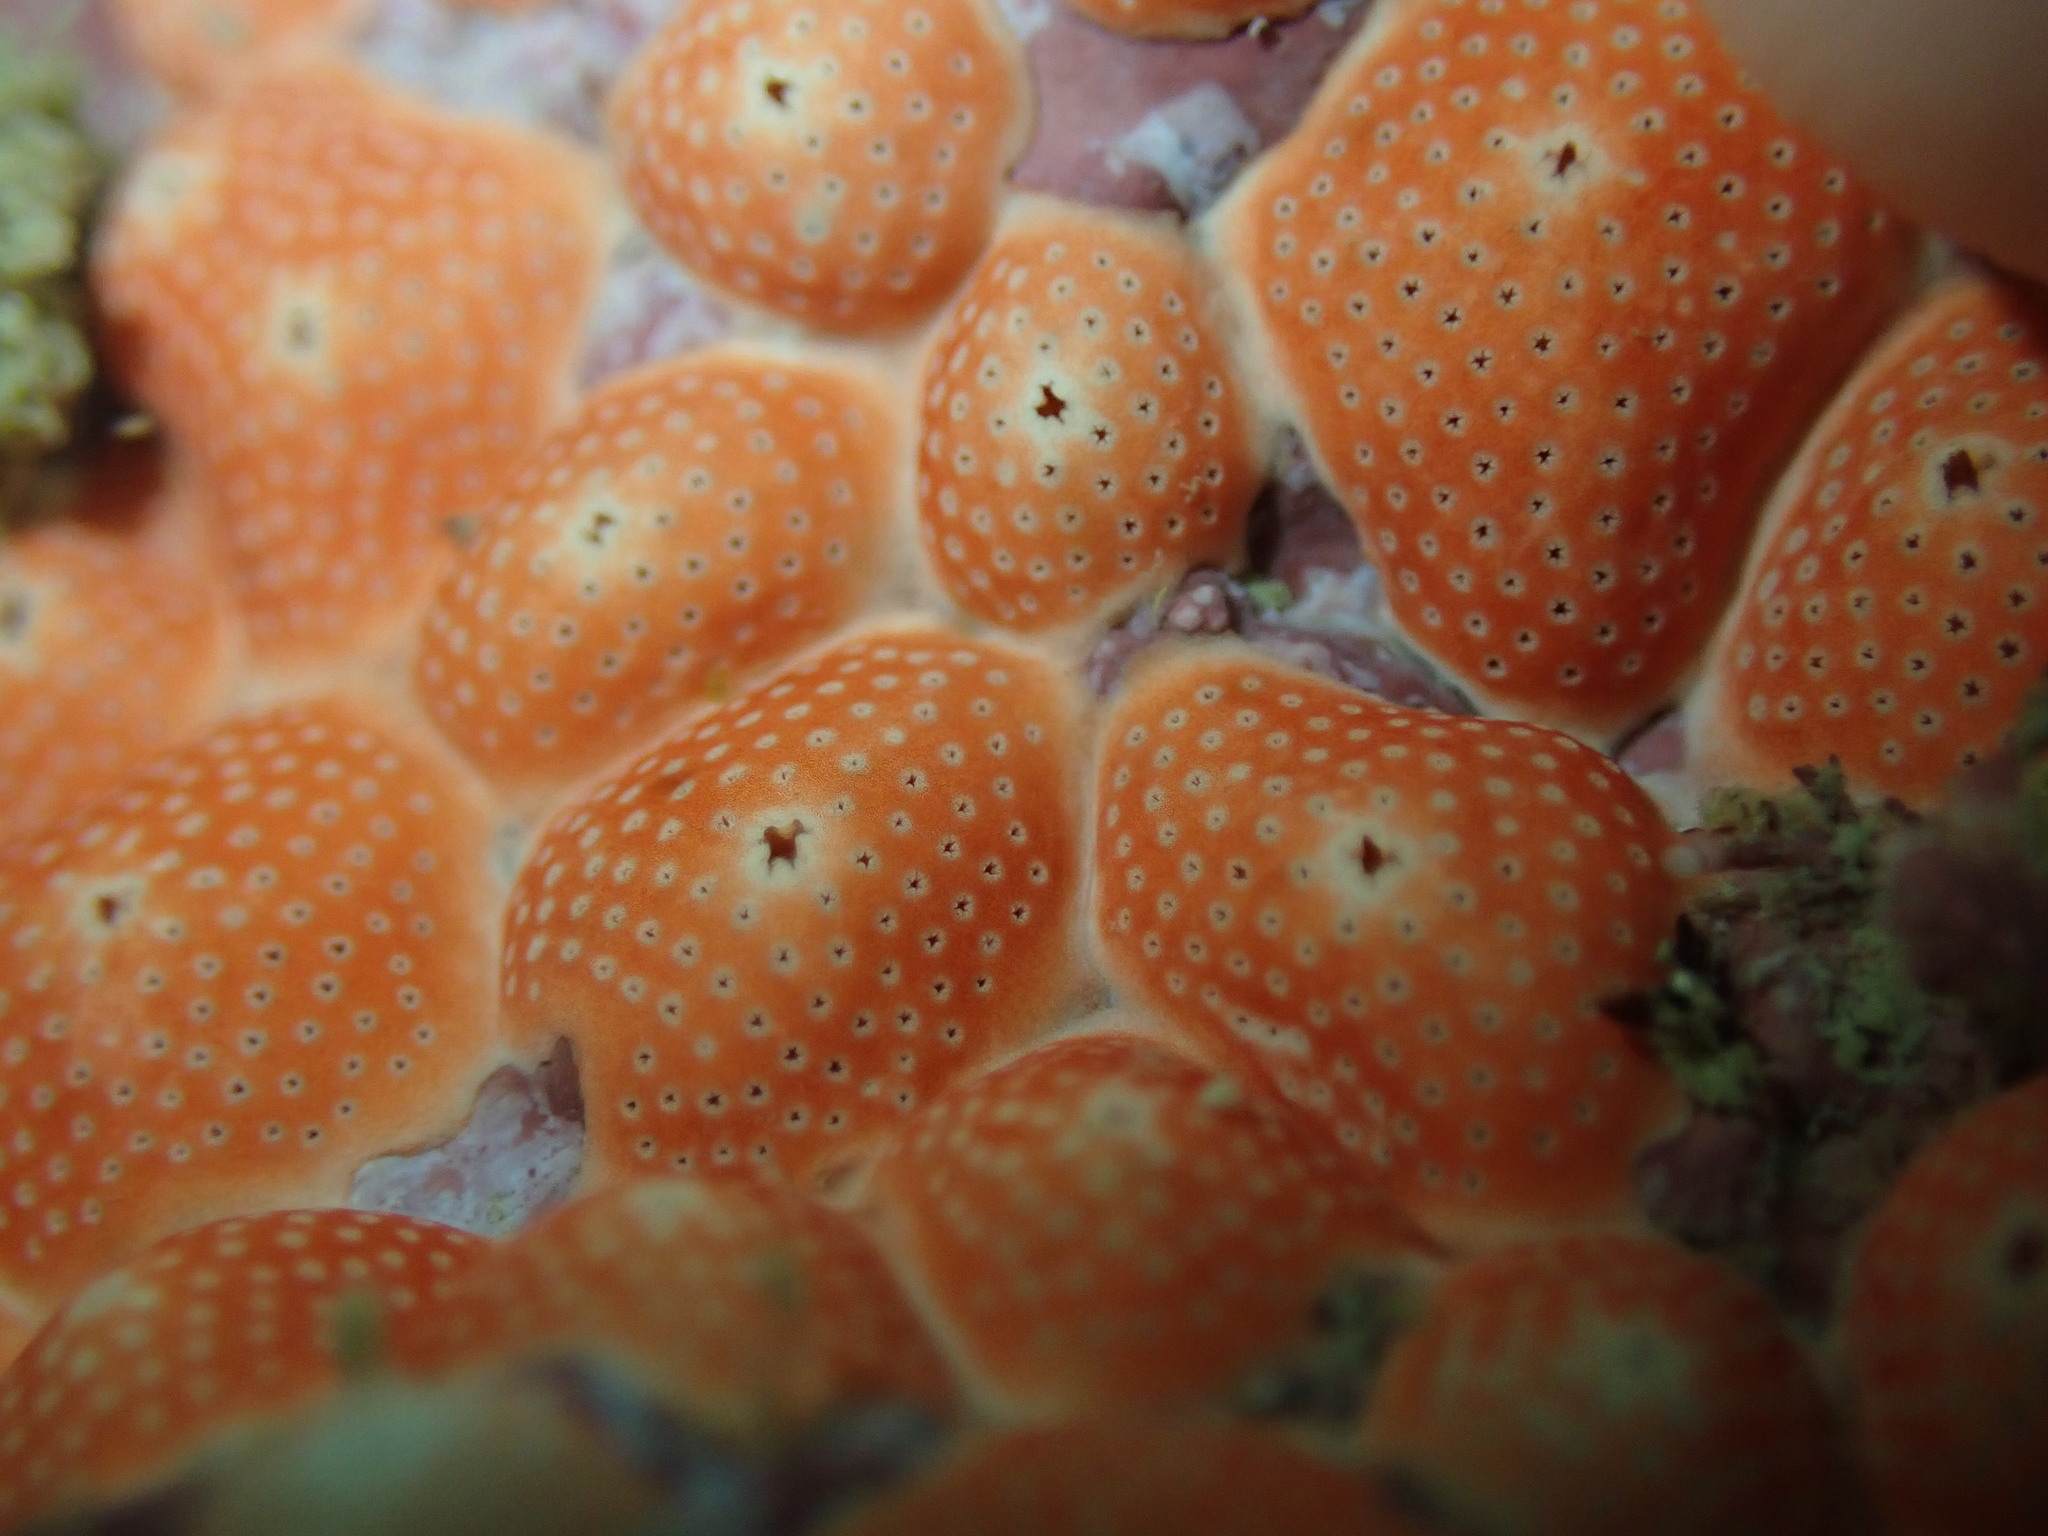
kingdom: Animalia
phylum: Chordata
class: Ascidiacea
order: Aplousobranchia
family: Didemnidae
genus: Didemnum
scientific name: Didemnum densum
